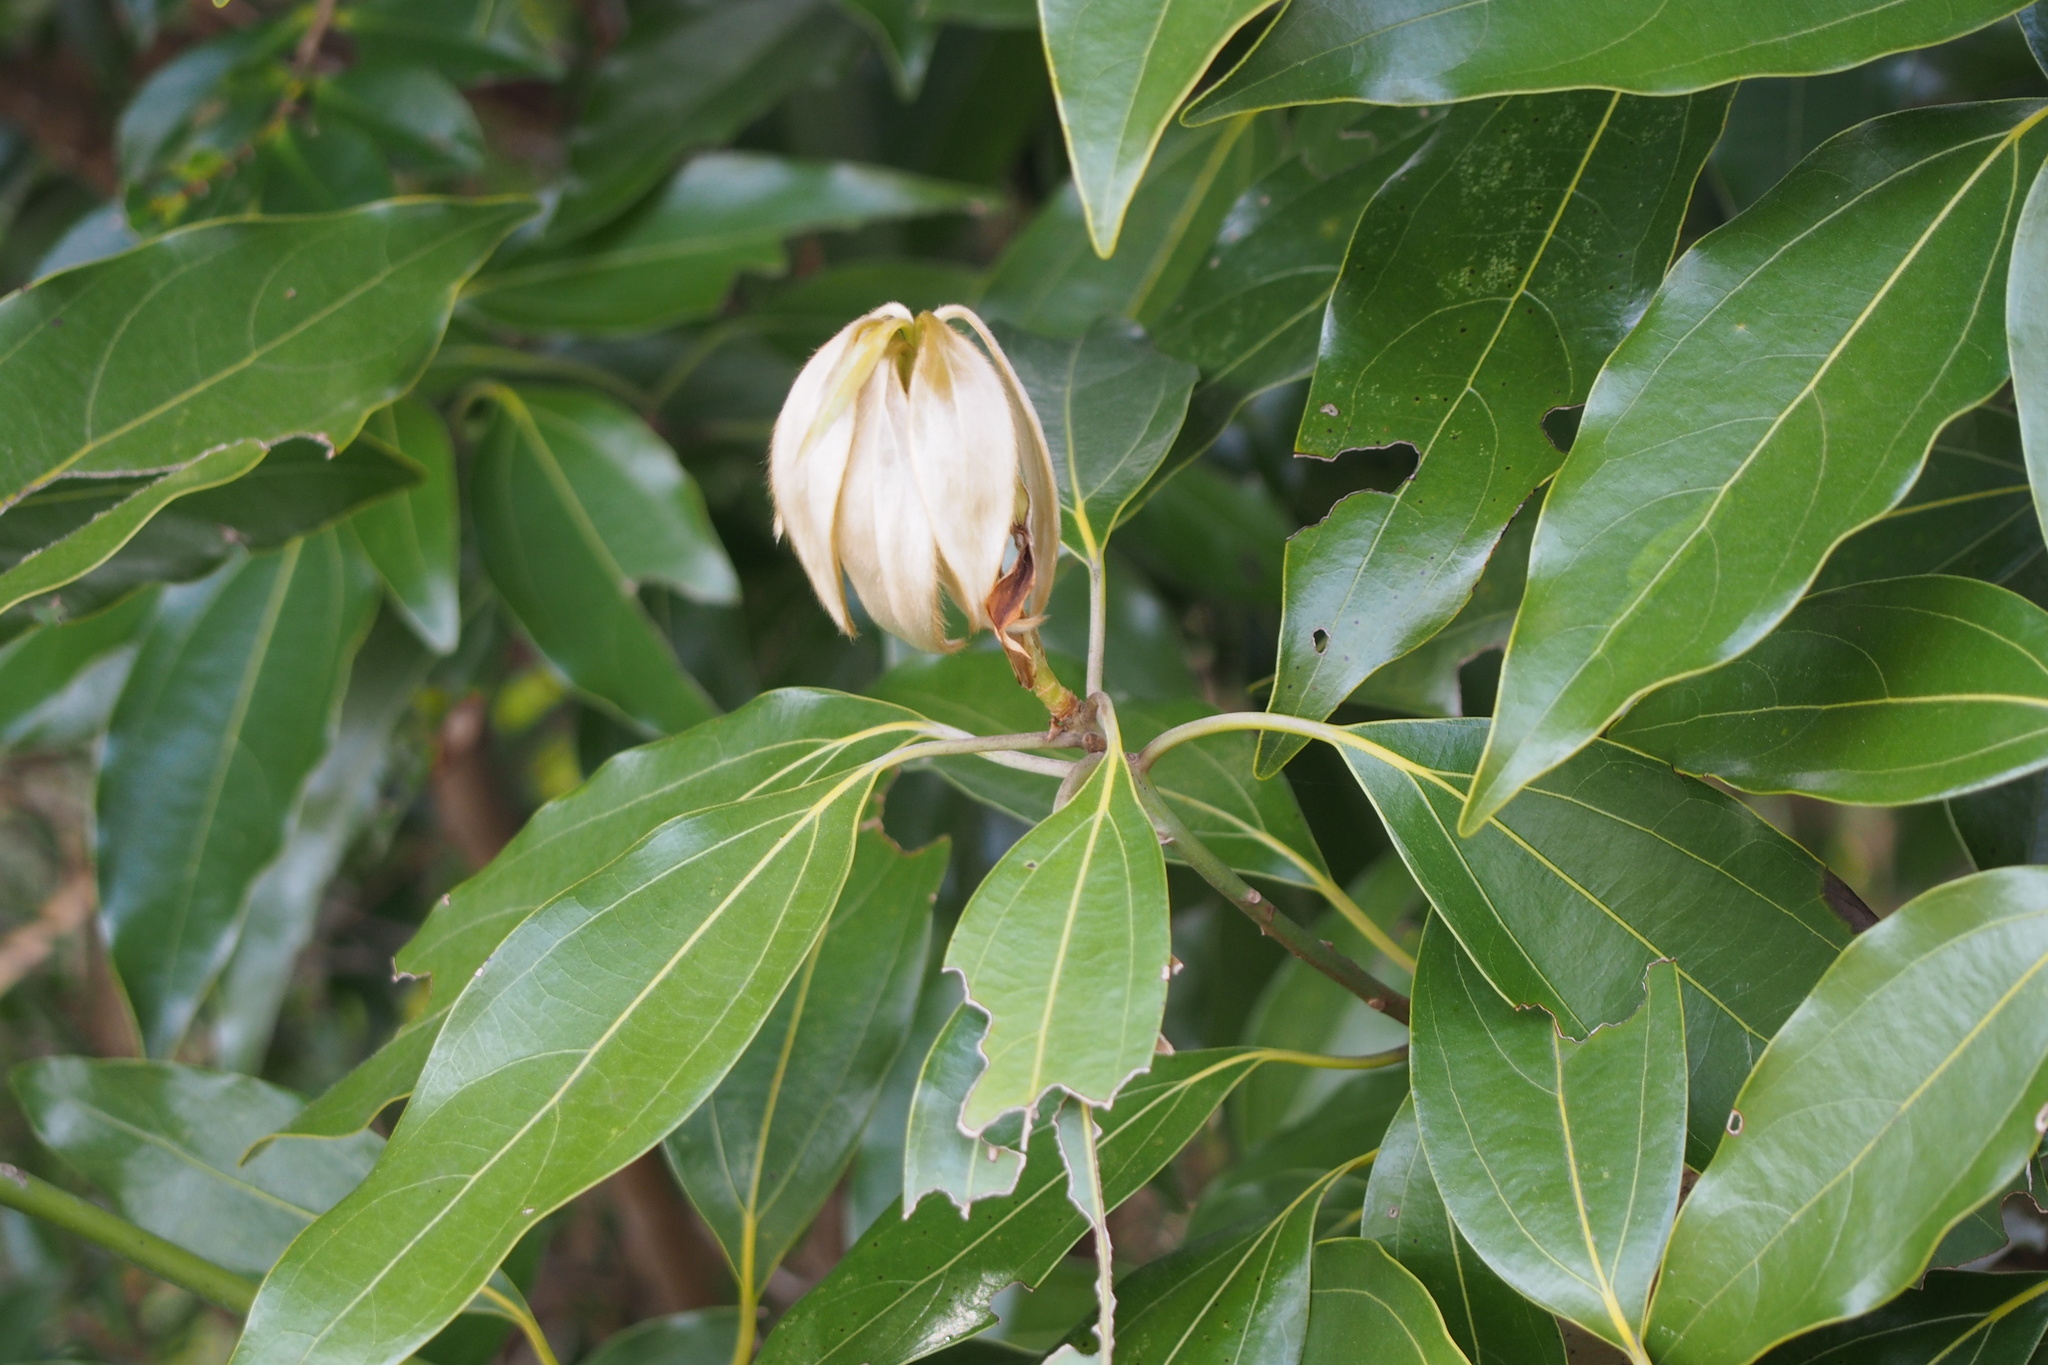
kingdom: Plantae
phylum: Tracheophyta
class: Magnoliopsida
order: Laurales
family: Lauraceae
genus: Neolitsea
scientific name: Neolitsea sericea
